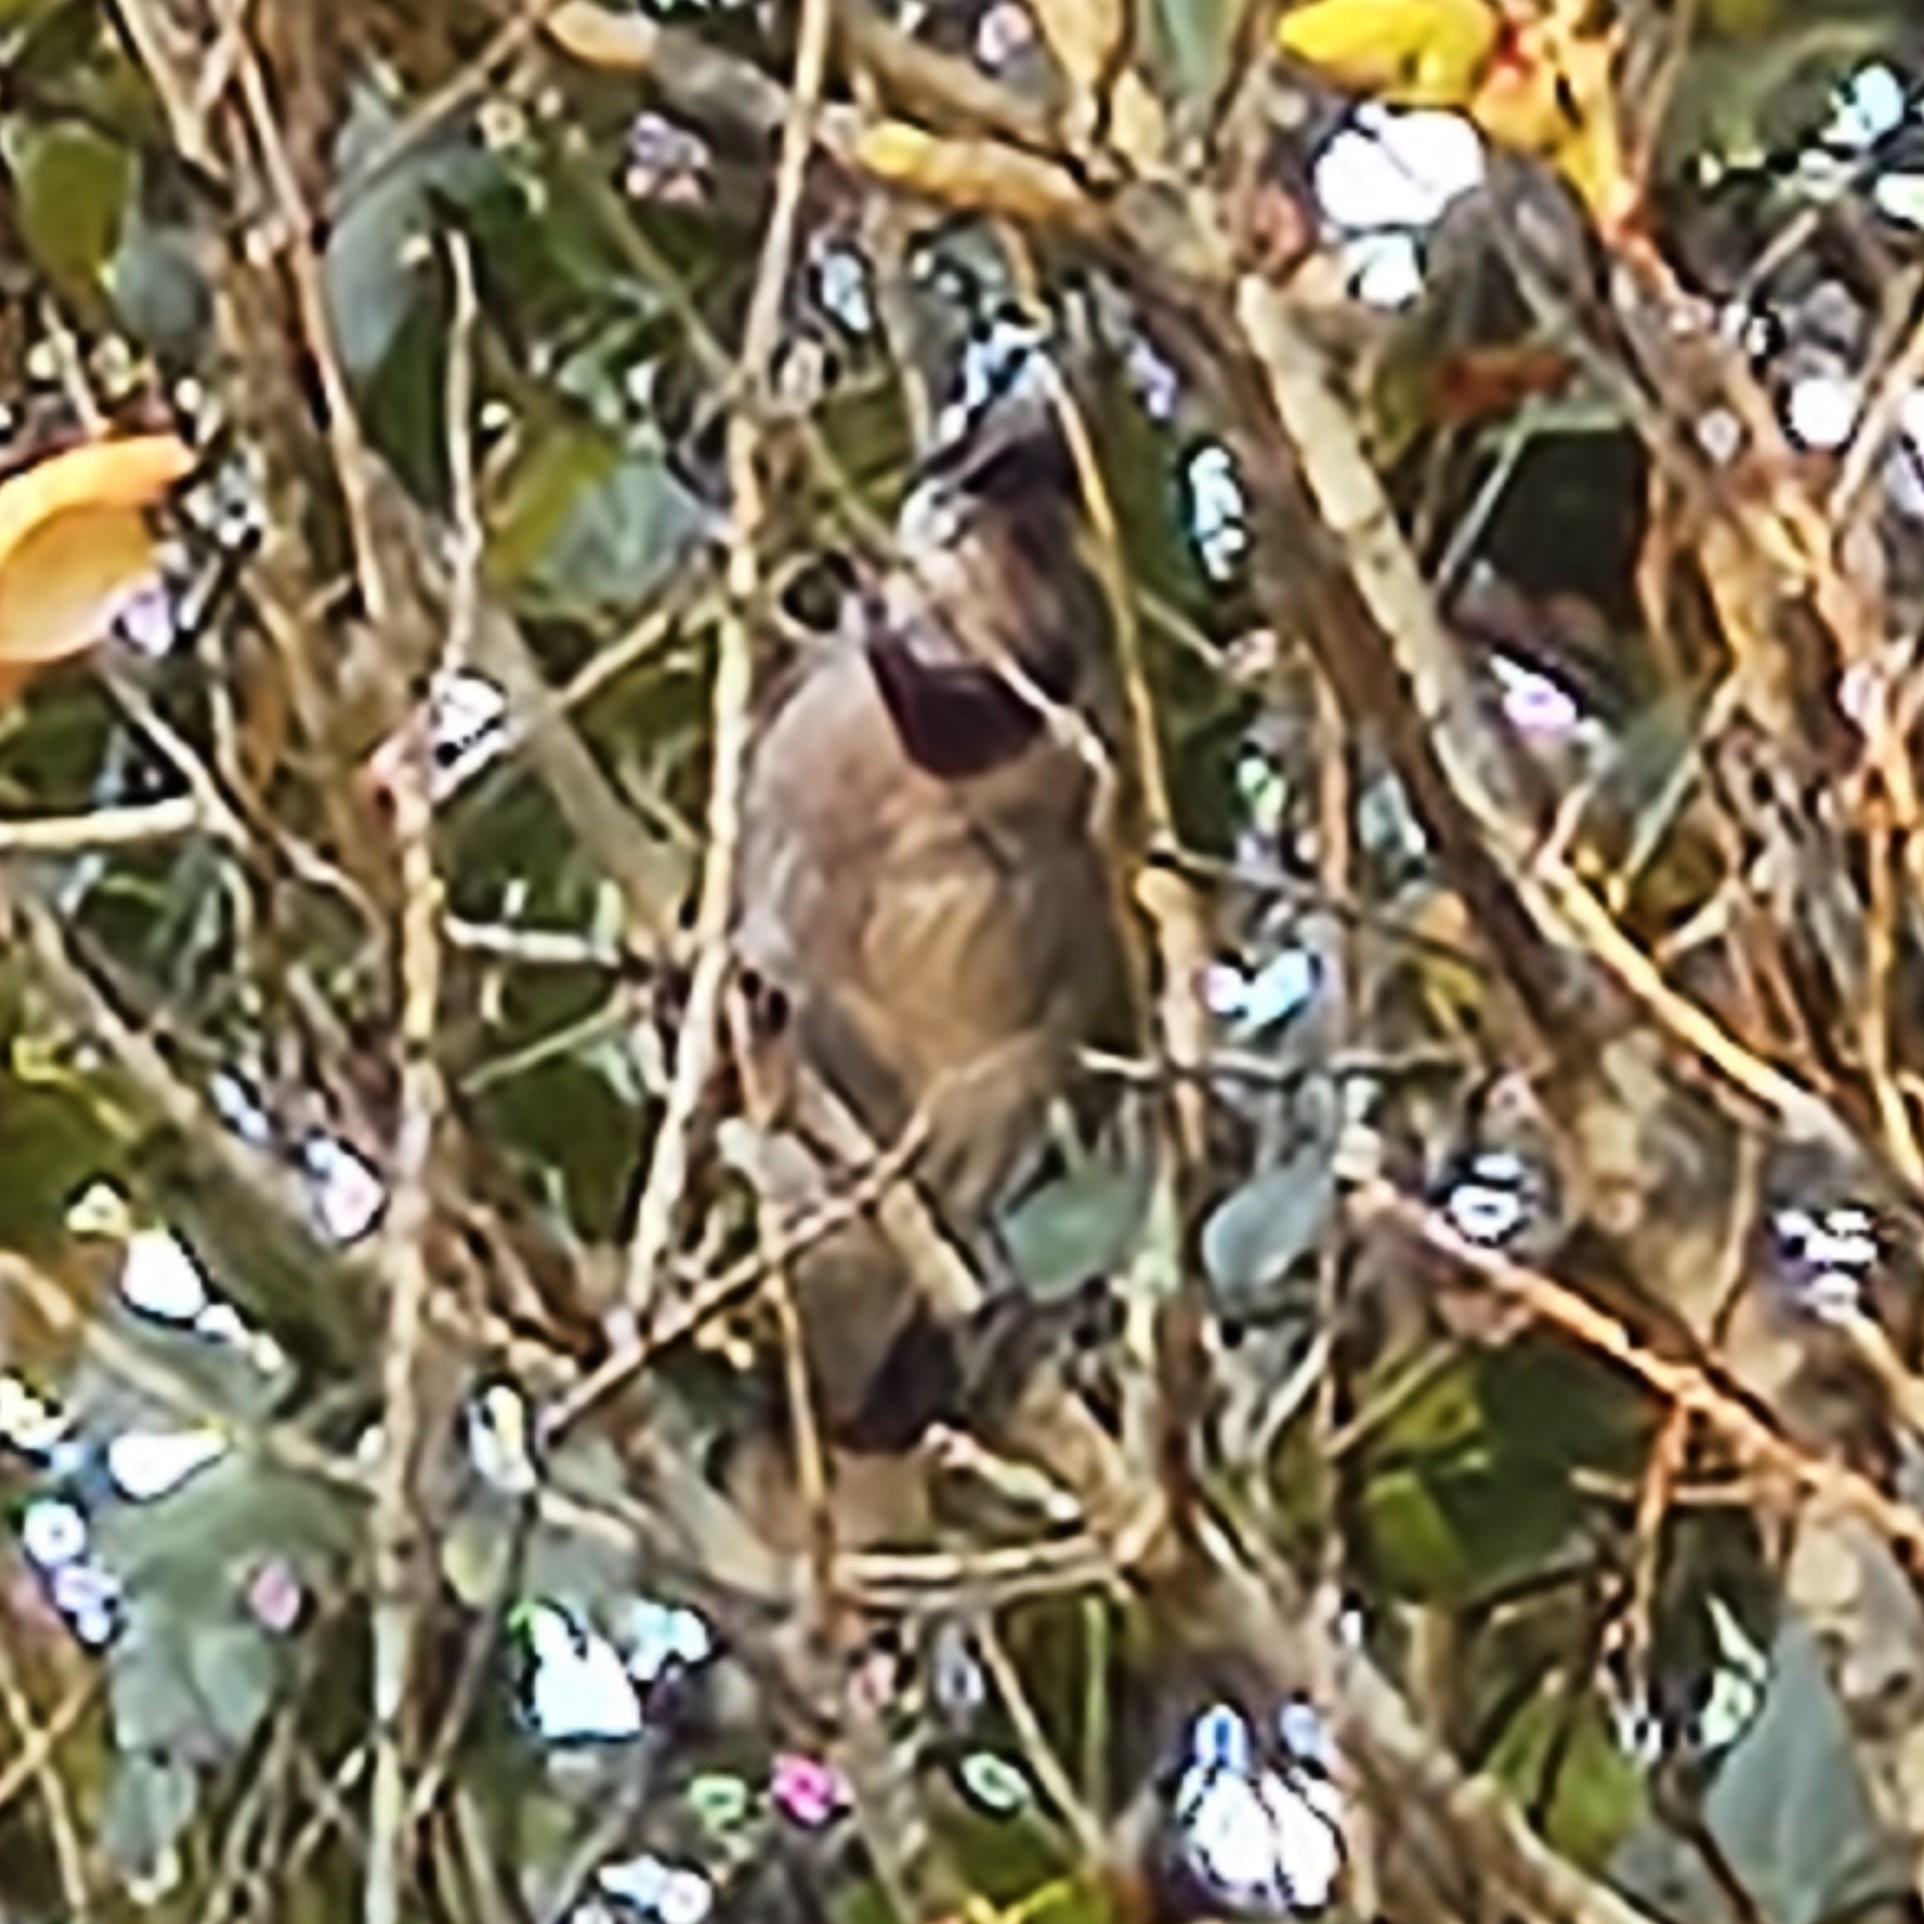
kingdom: Animalia
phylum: Chordata
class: Aves
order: Passeriformes
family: Corvidae
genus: Cyanocitta
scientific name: Cyanocitta cristata
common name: Blue jay
